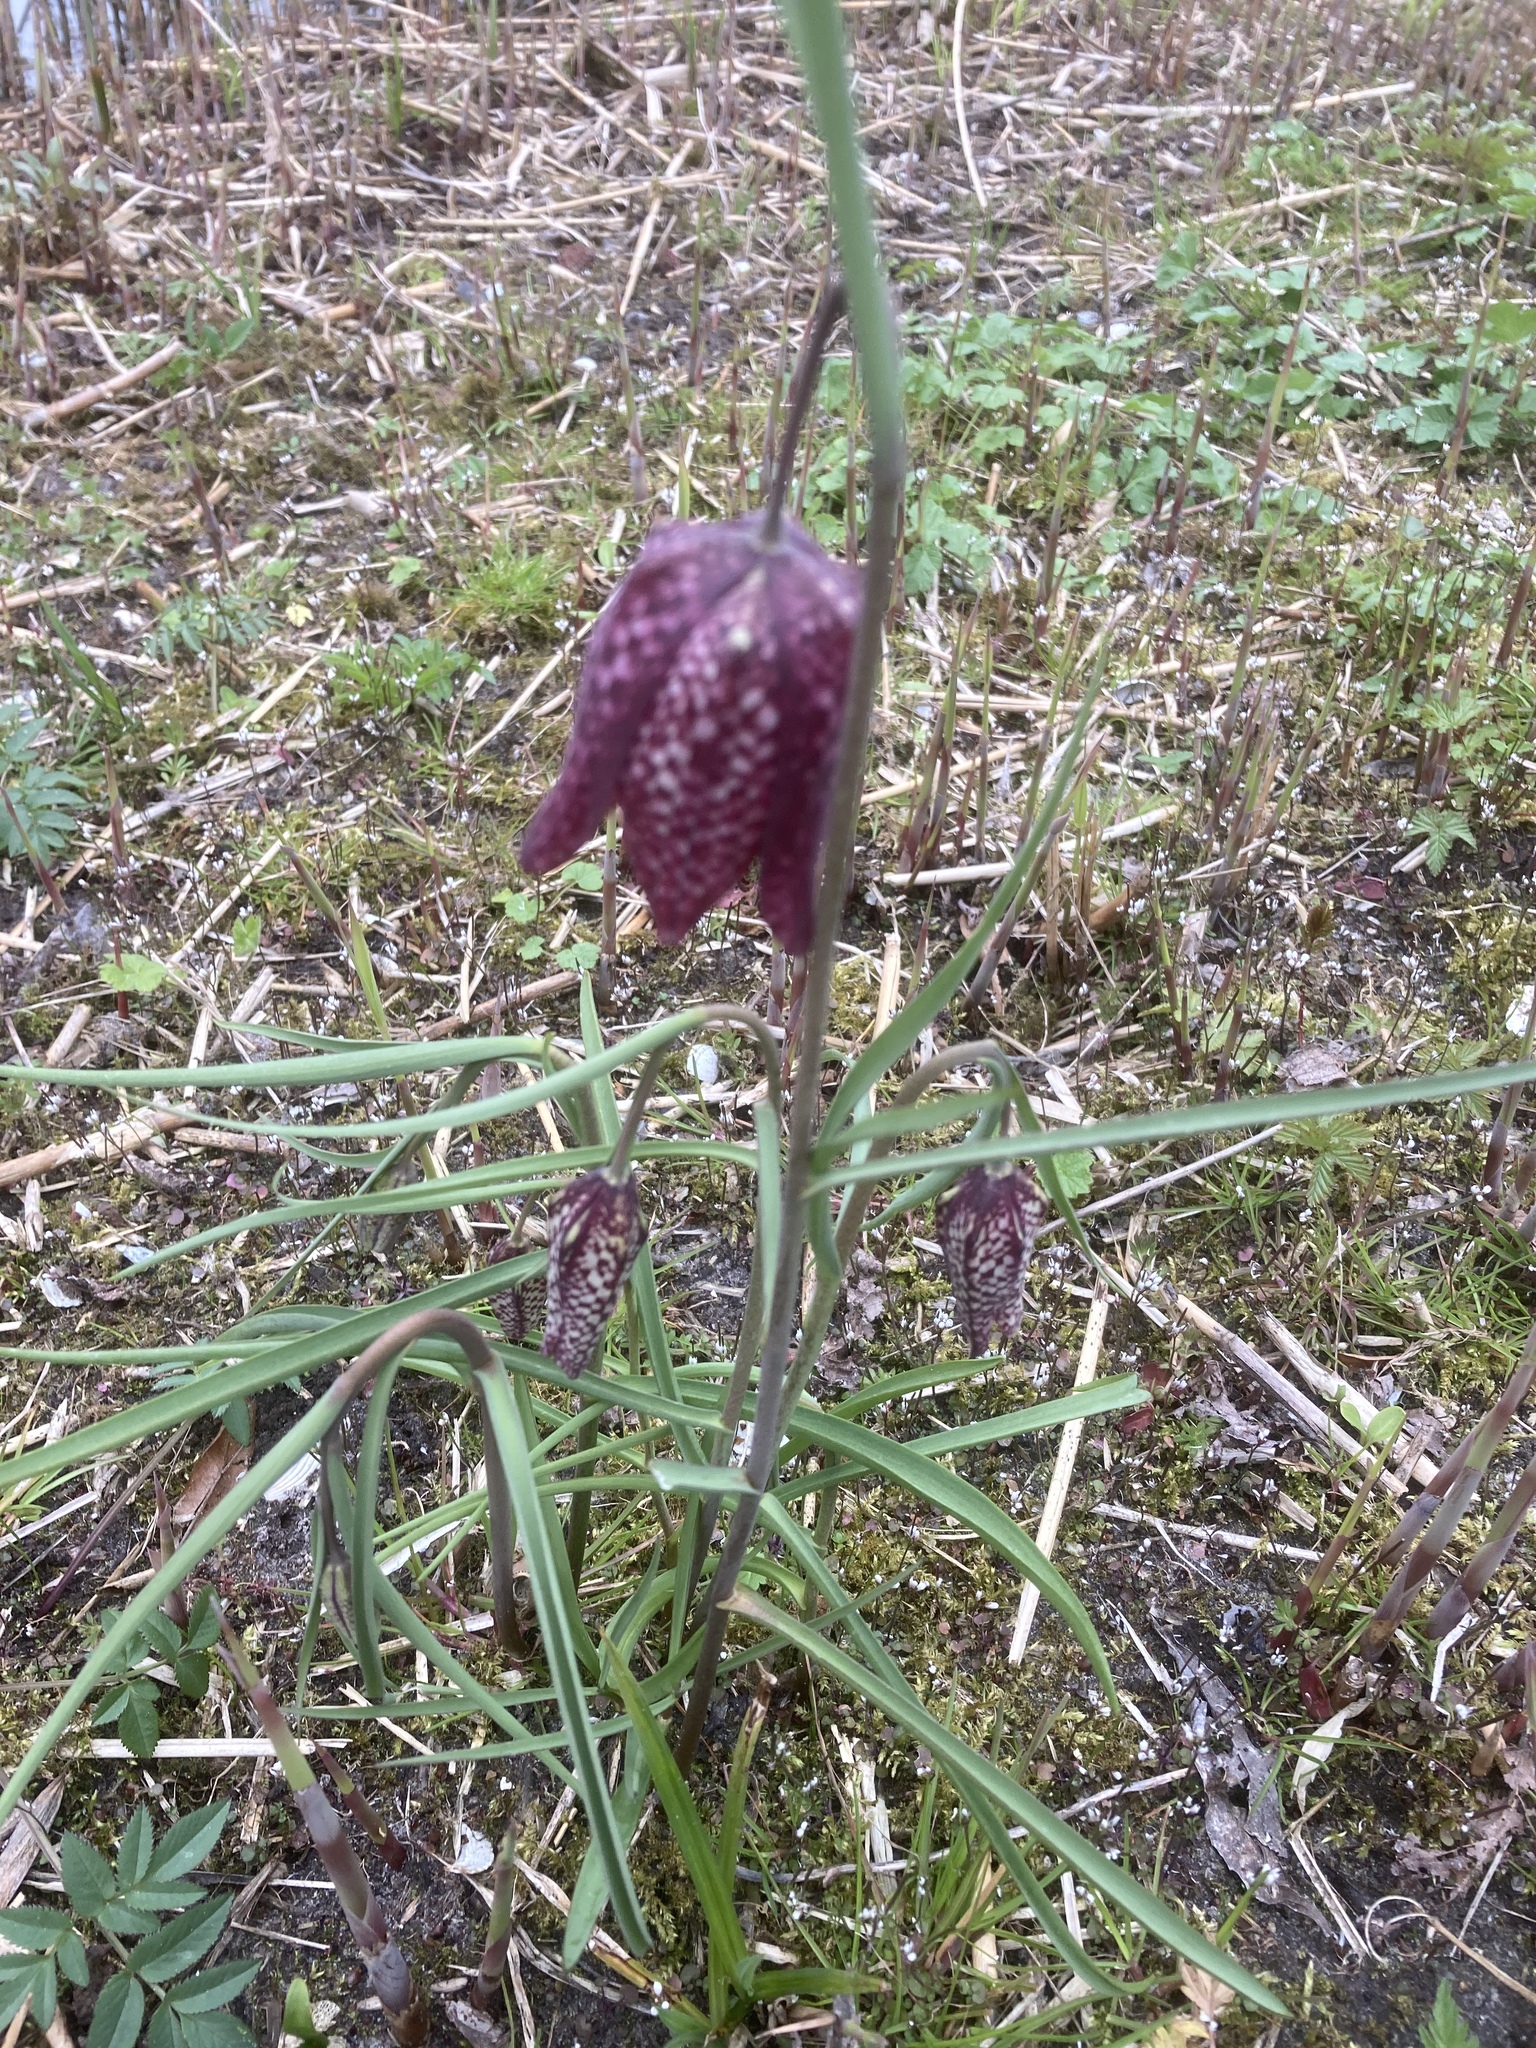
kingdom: Plantae
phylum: Tracheophyta
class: Liliopsida
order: Liliales
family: Liliaceae
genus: Fritillaria
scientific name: Fritillaria meleagris
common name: Fritillary
